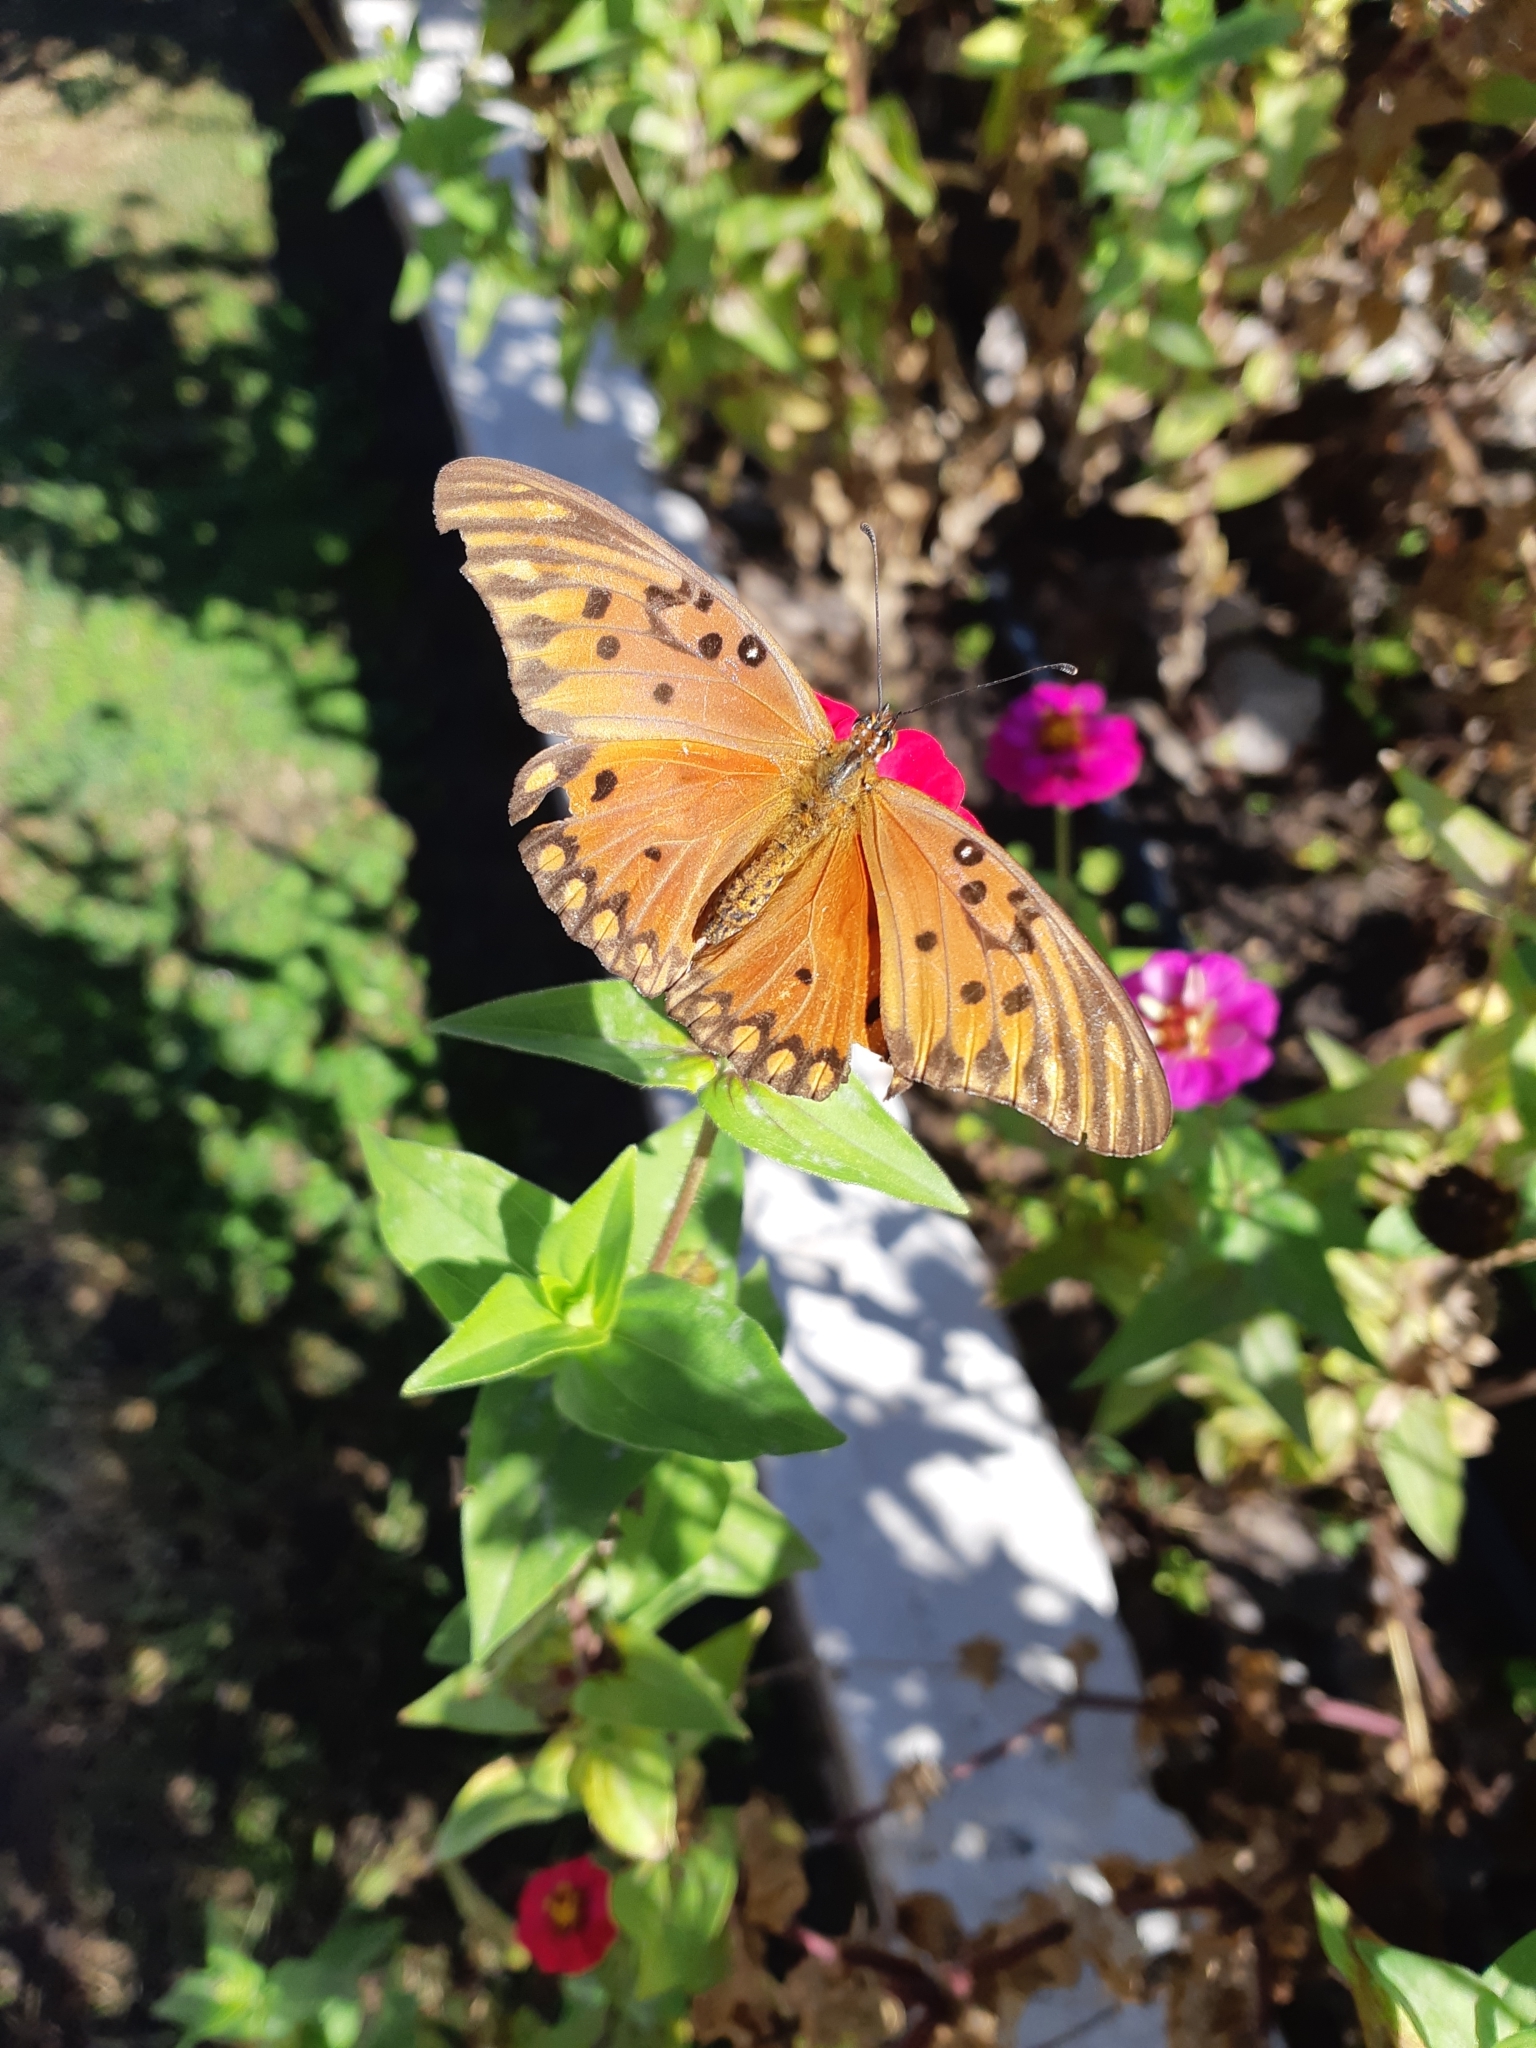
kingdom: Animalia
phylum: Arthropoda
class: Insecta
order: Lepidoptera
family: Nymphalidae
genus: Dione
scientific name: Dione vanillae
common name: Gulf fritillary
